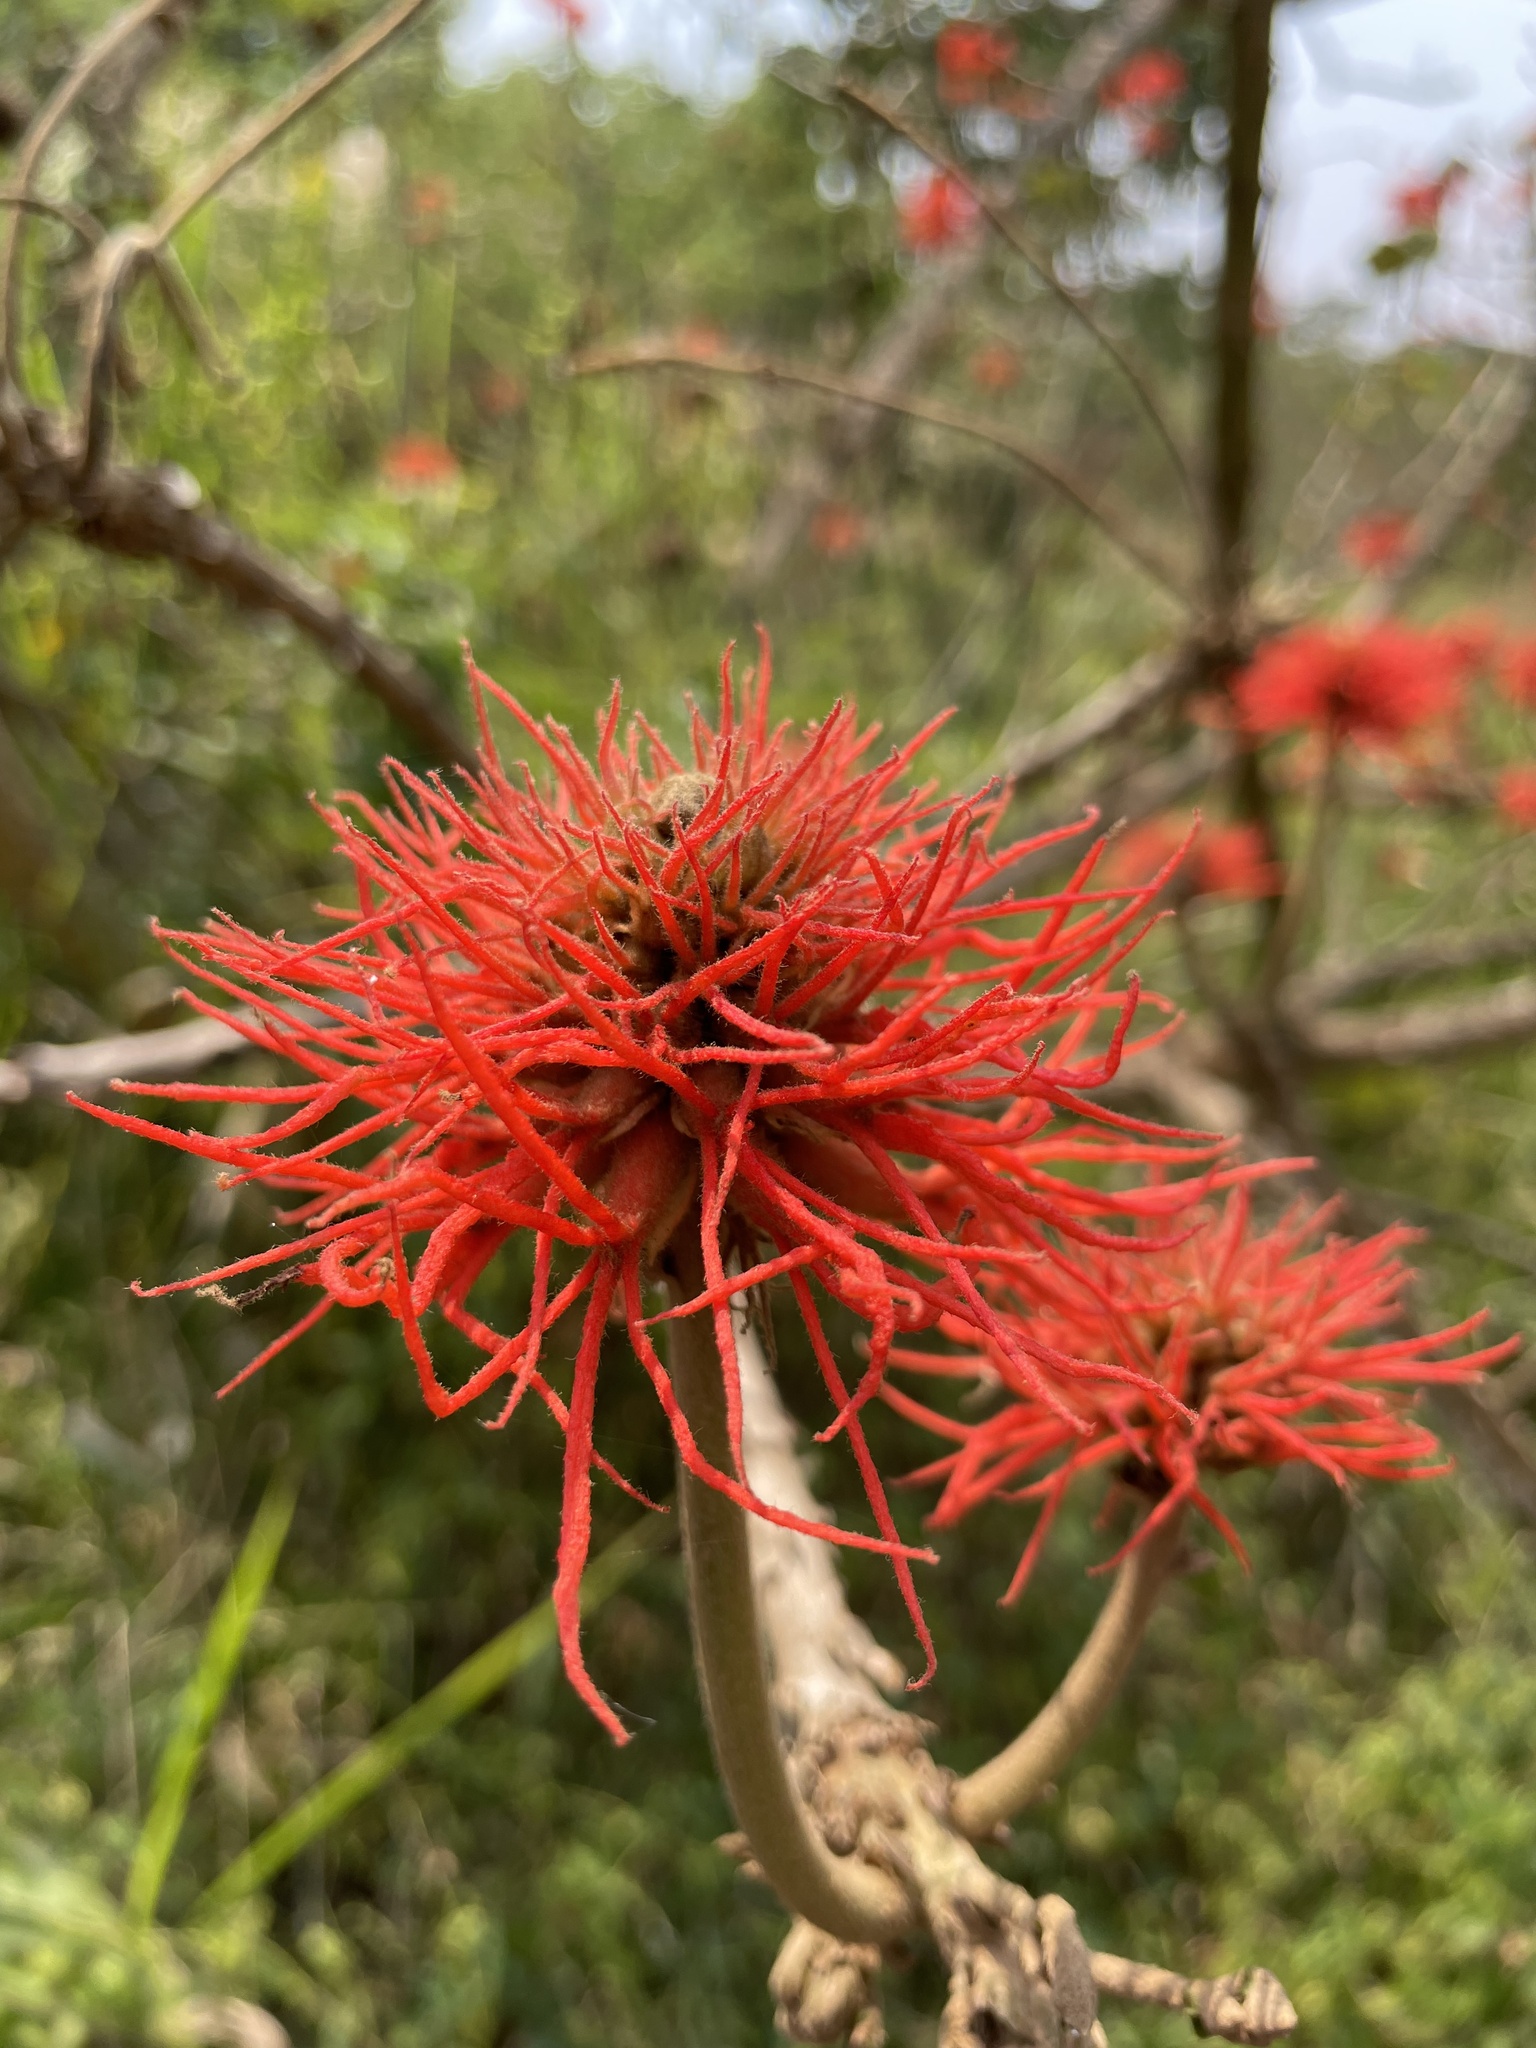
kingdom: Plantae
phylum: Tracheophyta
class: Magnoliopsida
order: Fabales
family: Fabaceae
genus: Erythrina
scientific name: Erythrina abyssinica
